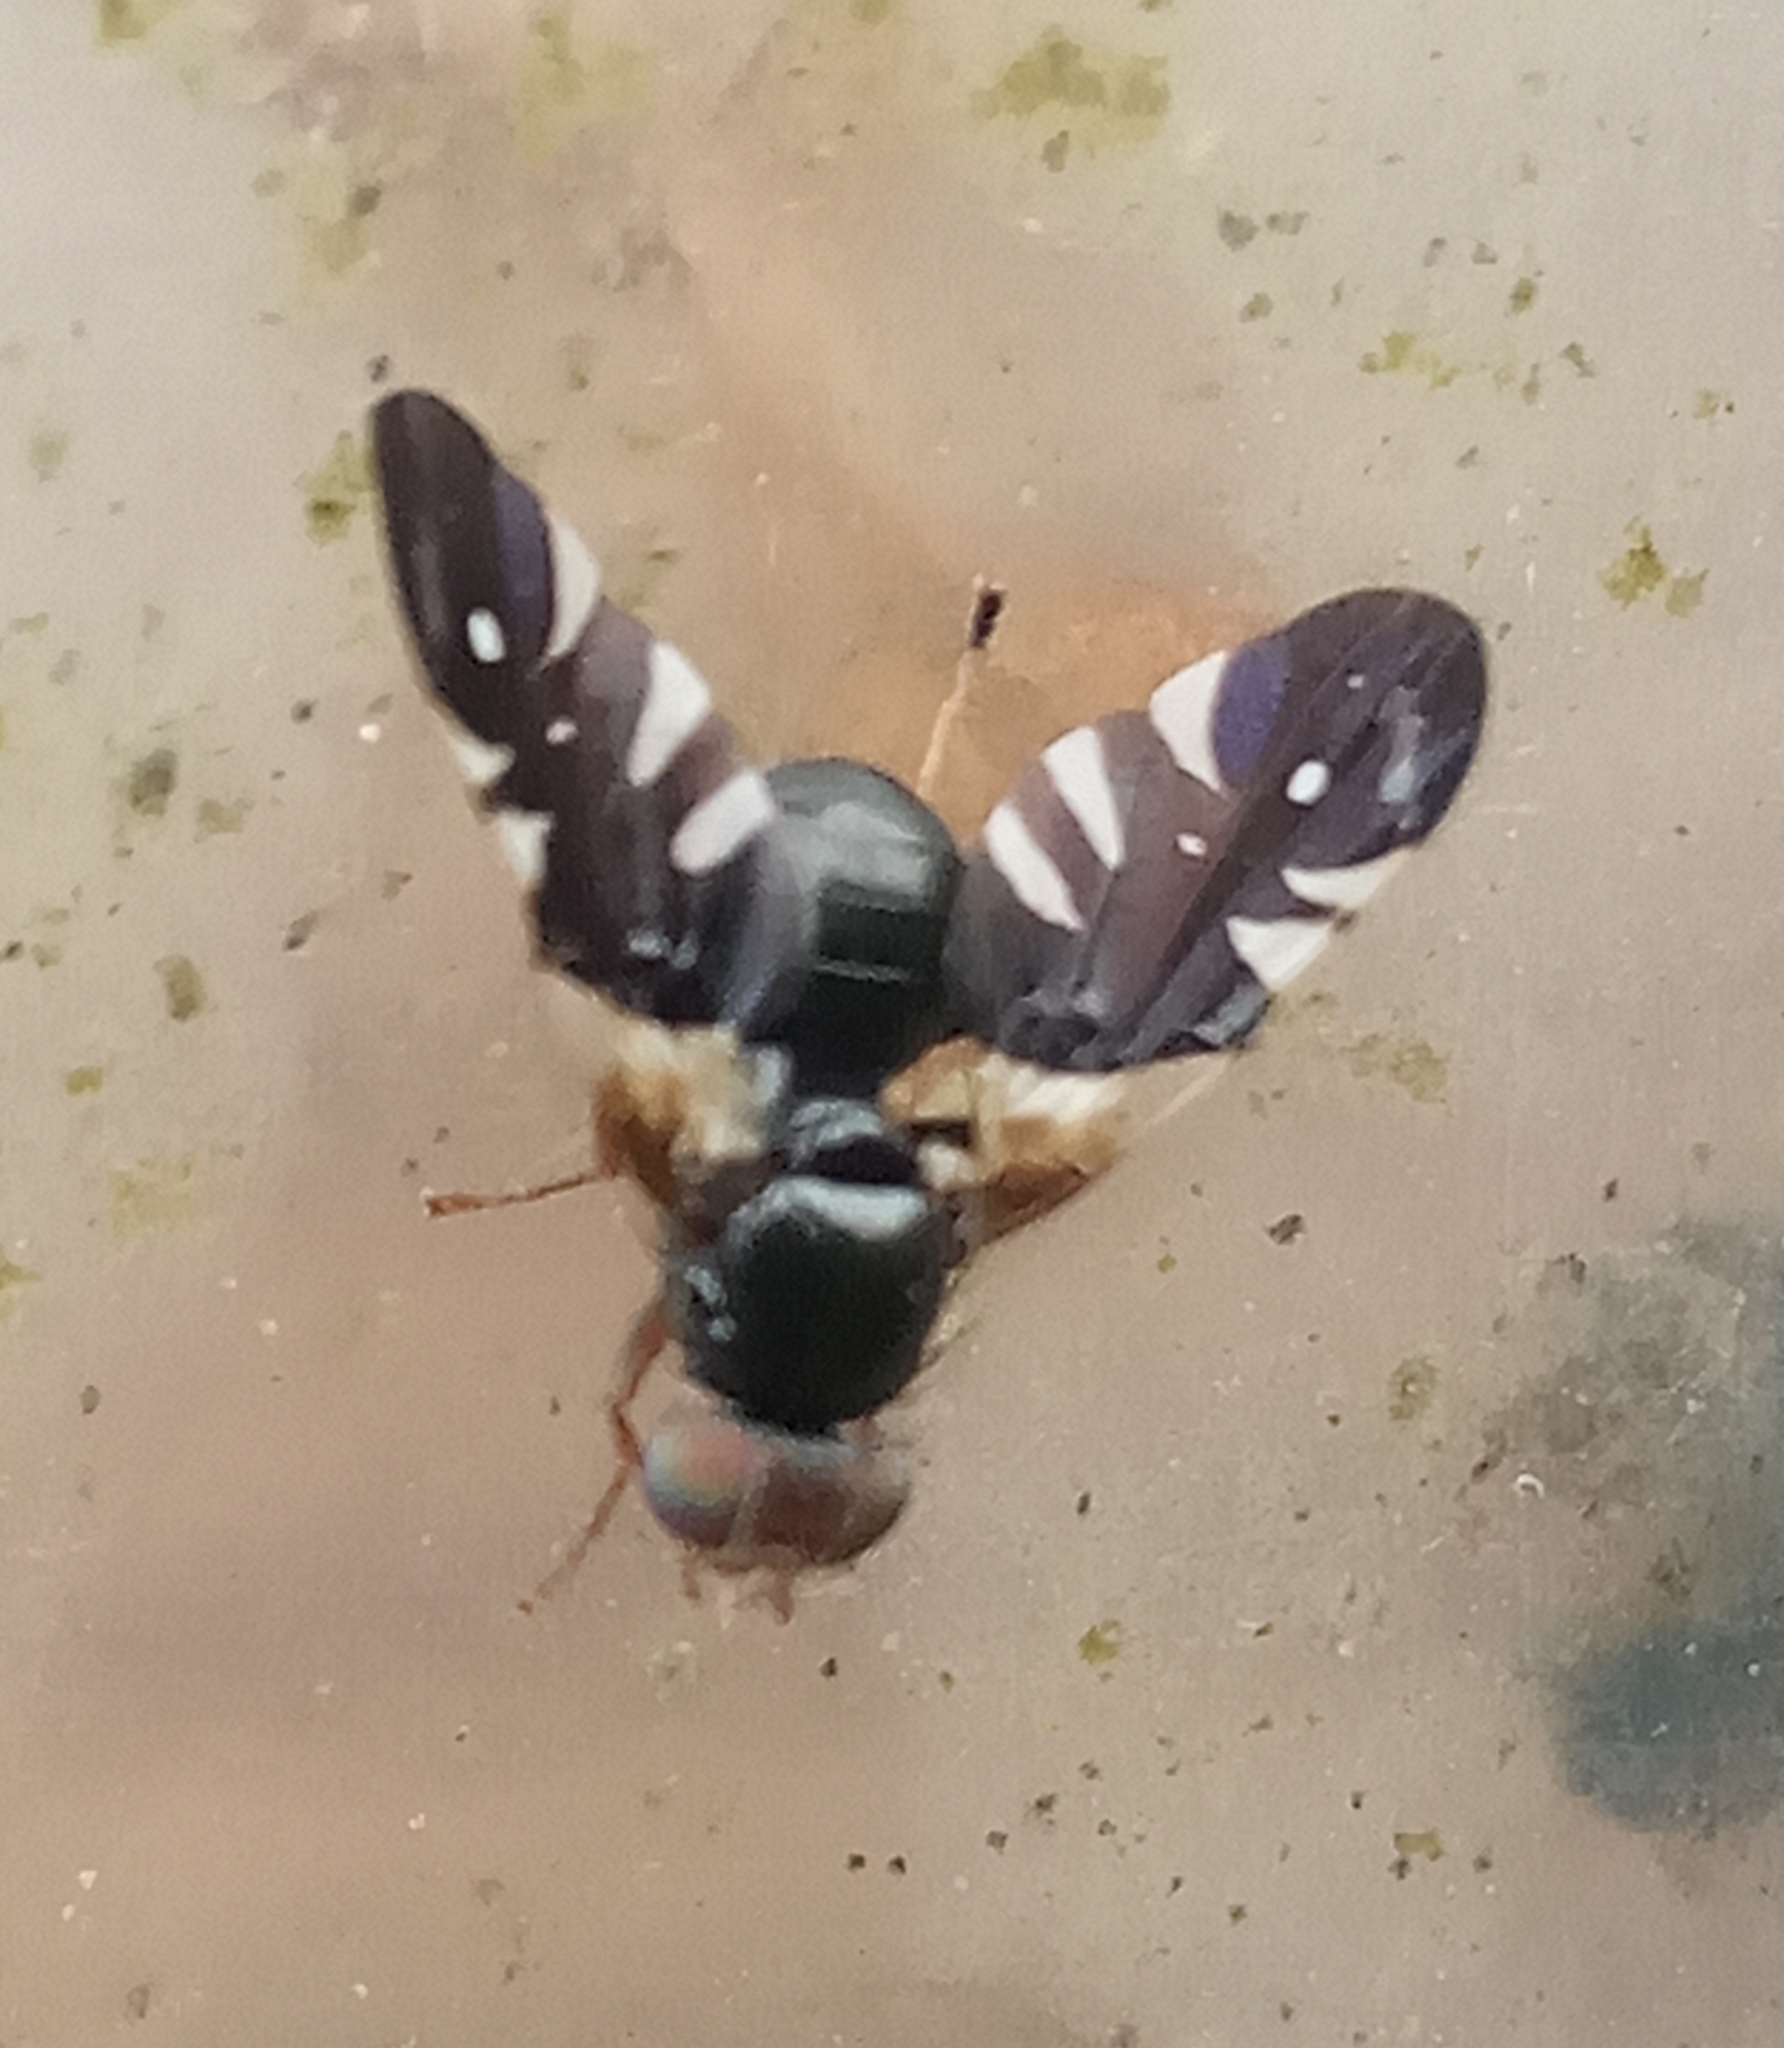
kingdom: Animalia
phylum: Arthropoda
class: Insecta
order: Diptera
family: Tephritidae
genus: Aciura
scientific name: Aciura coryli
